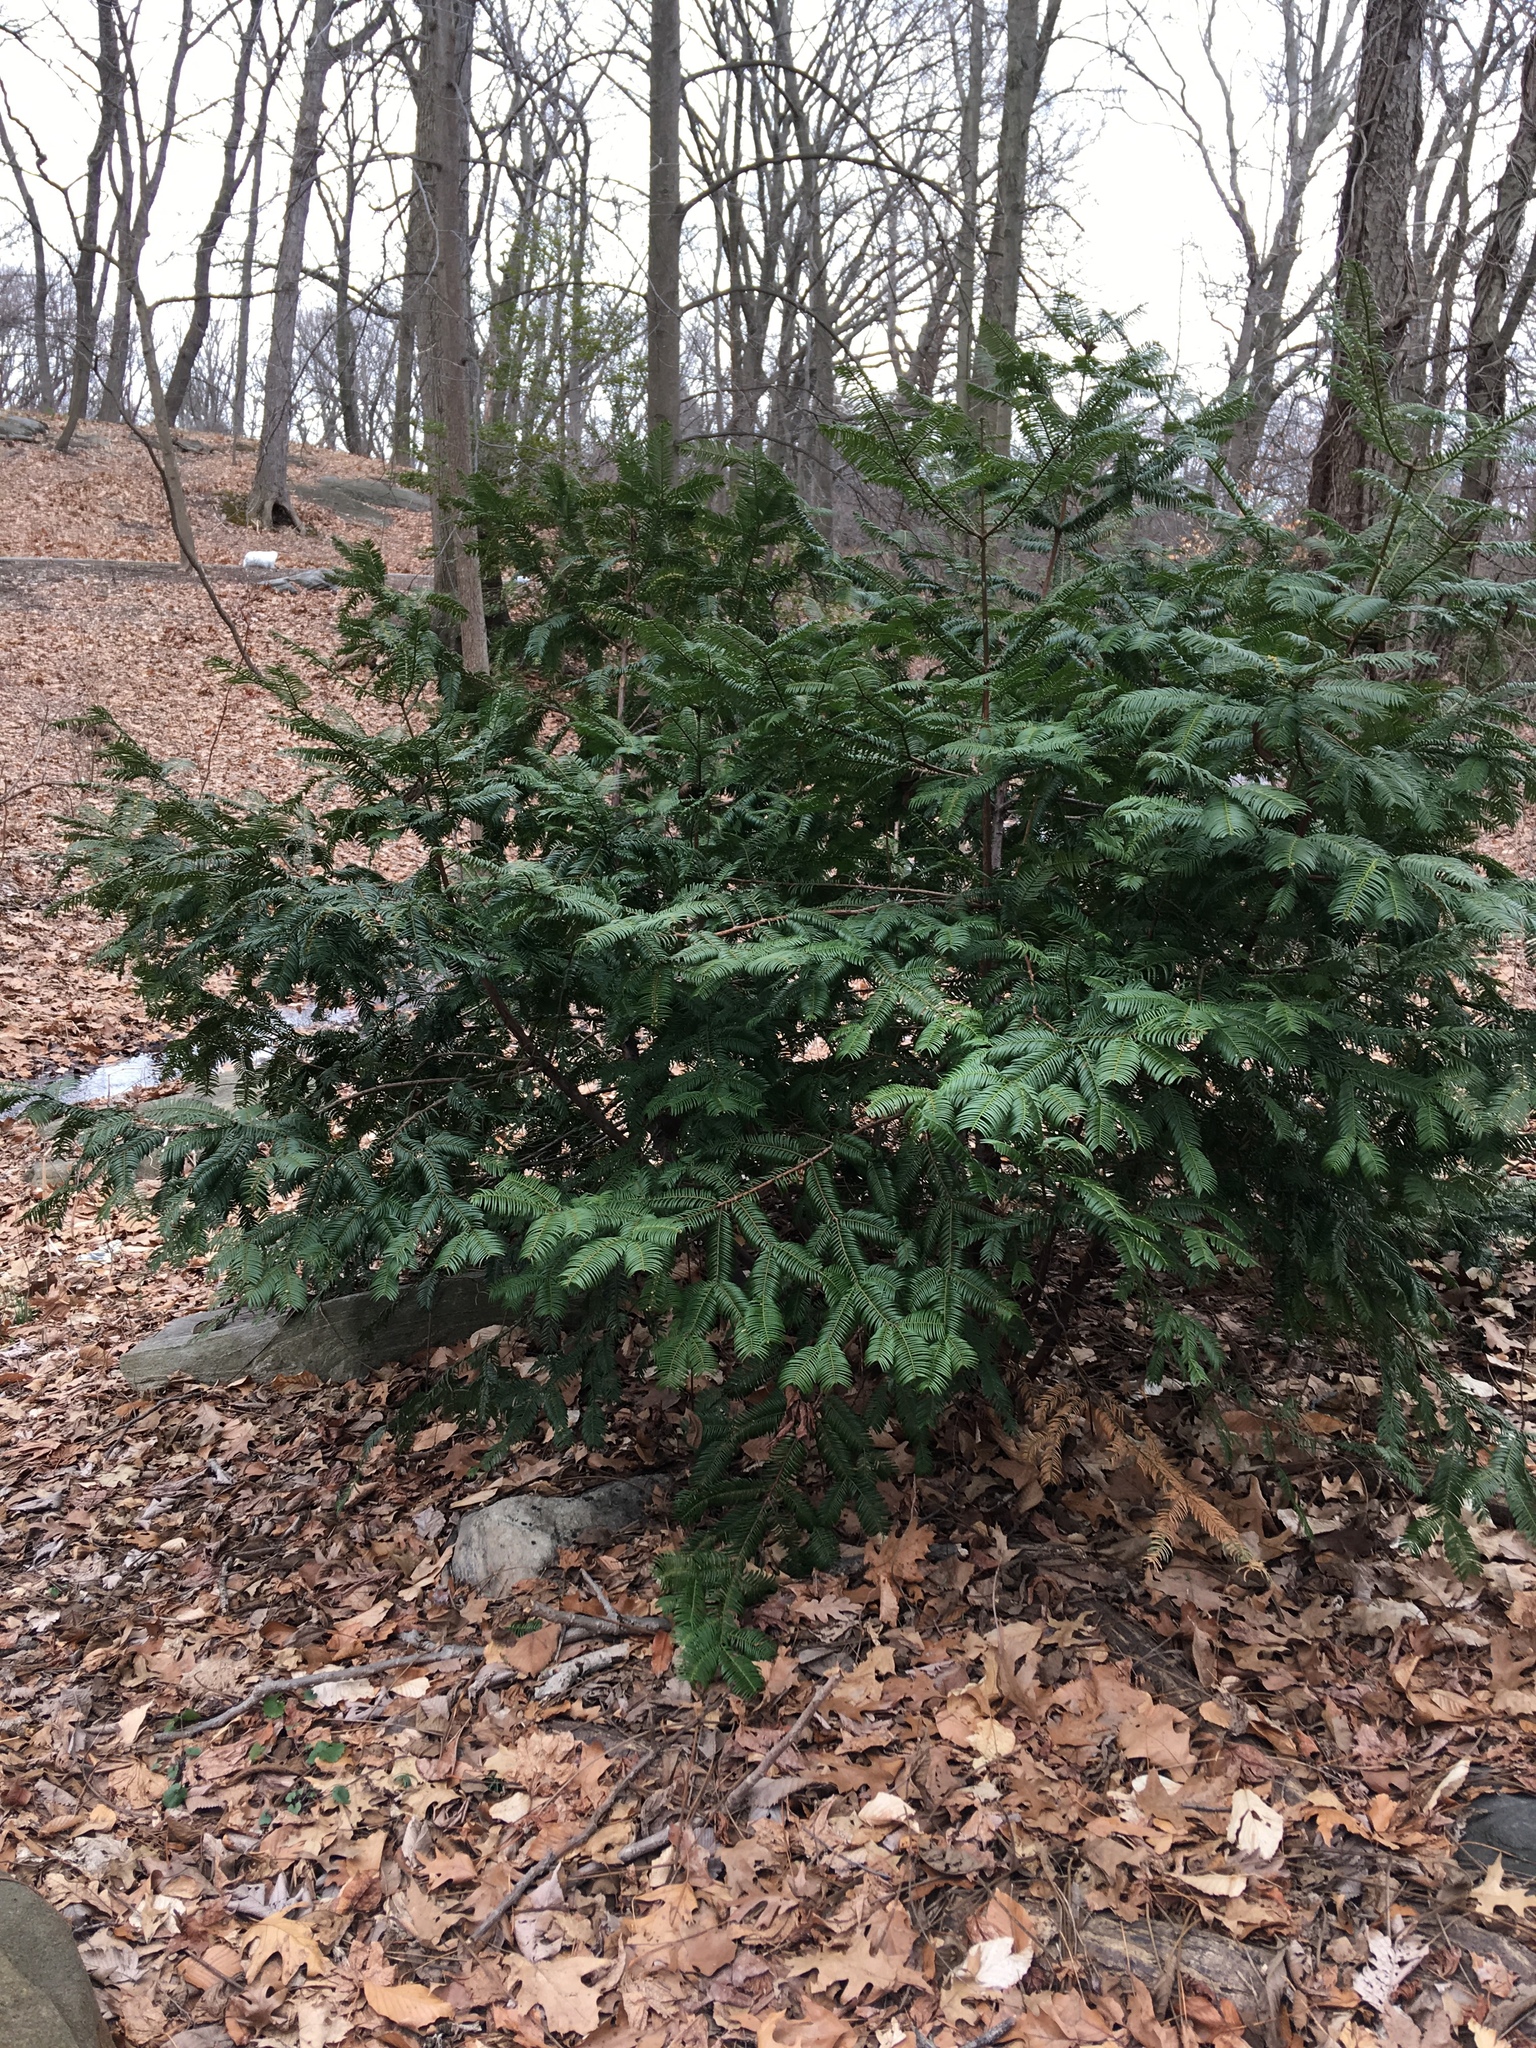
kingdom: Plantae
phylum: Tracheophyta
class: Pinopsida
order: Pinales
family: Cephalotaxaceae
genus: Cephalotaxus
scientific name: Cephalotaxus harringtonia
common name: Japanese plum-yew
